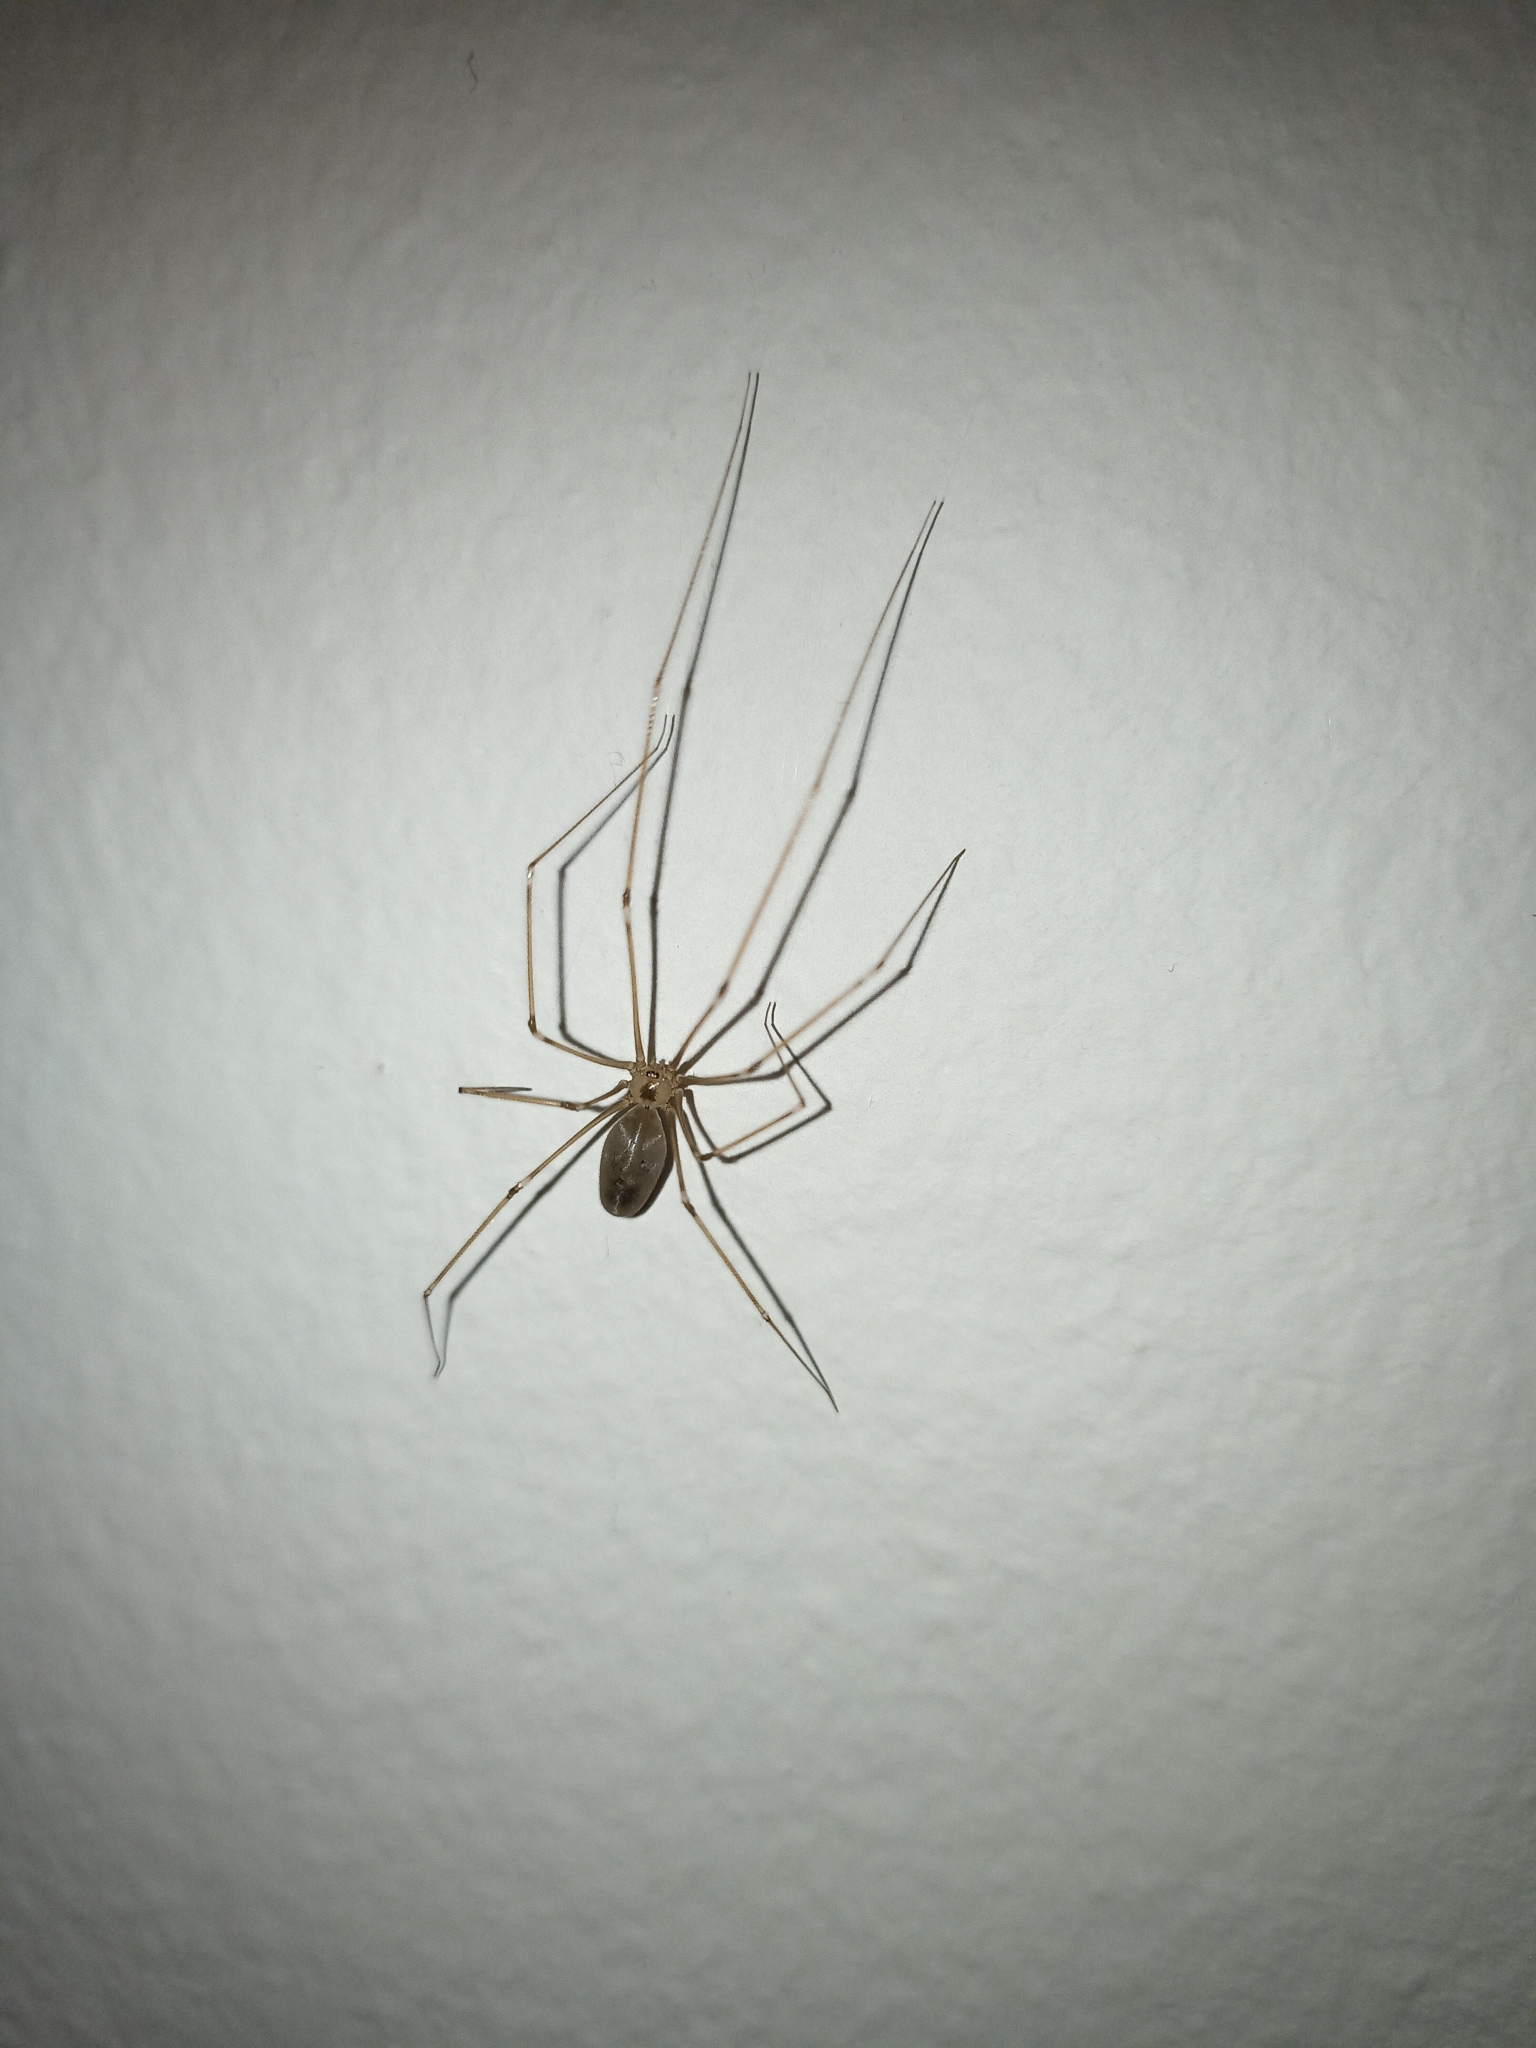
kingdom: Animalia
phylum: Arthropoda
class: Arachnida
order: Araneae
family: Pholcidae
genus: Pholcus
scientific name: Pholcus phalangioides
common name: Longbodied cellar spider
